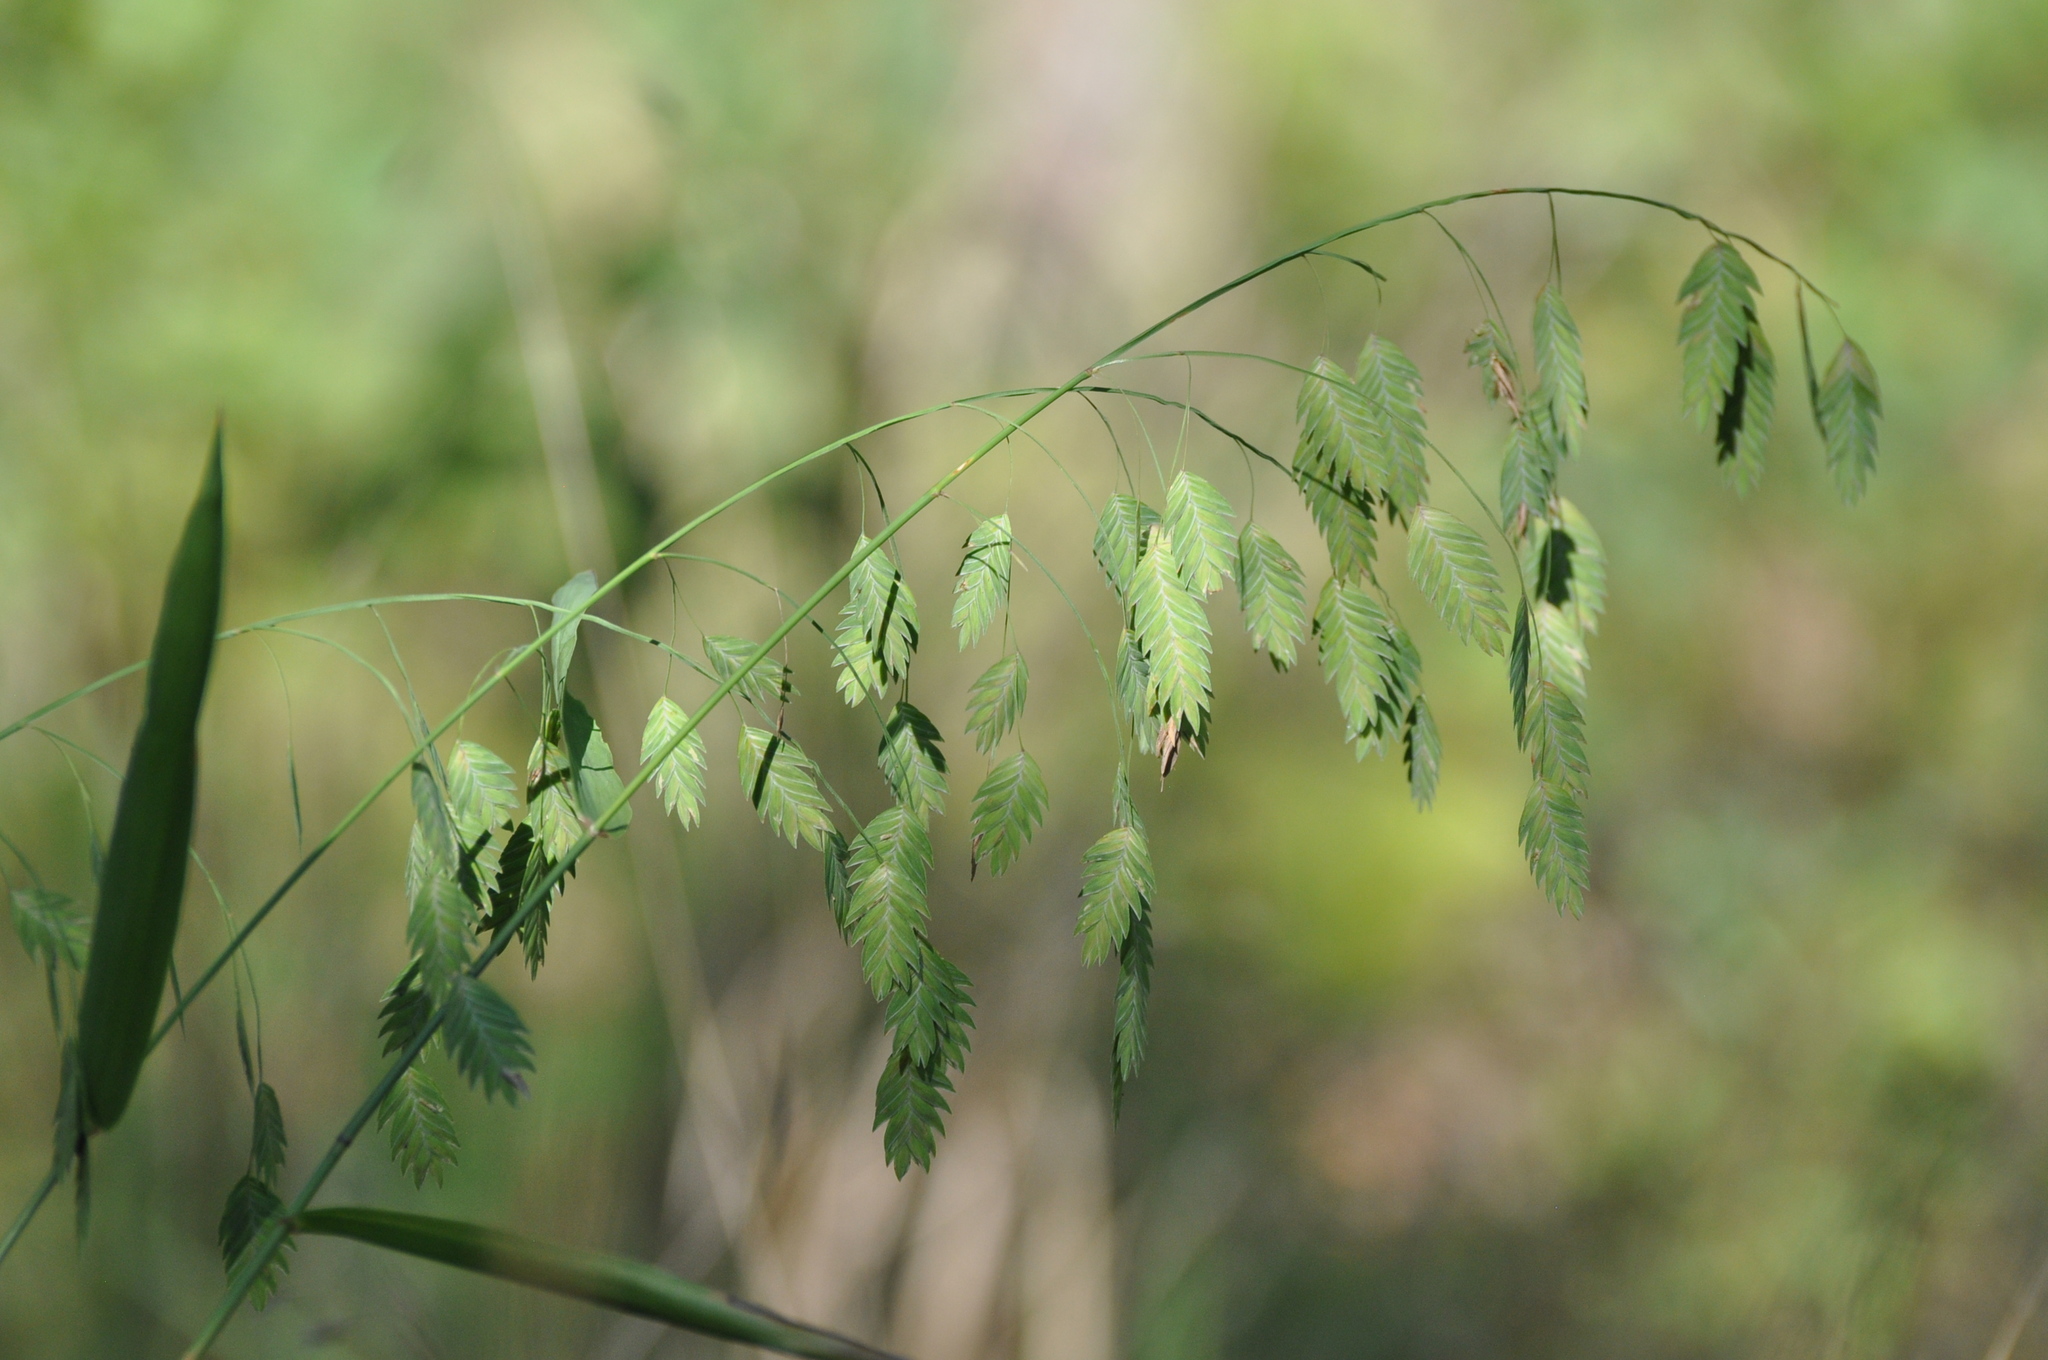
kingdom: Plantae
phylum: Tracheophyta
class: Liliopsida
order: Poales
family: Poaceae
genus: Chasmanthium
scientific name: Chasmanthium latifolium
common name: Broad-leaved chasmanthium
